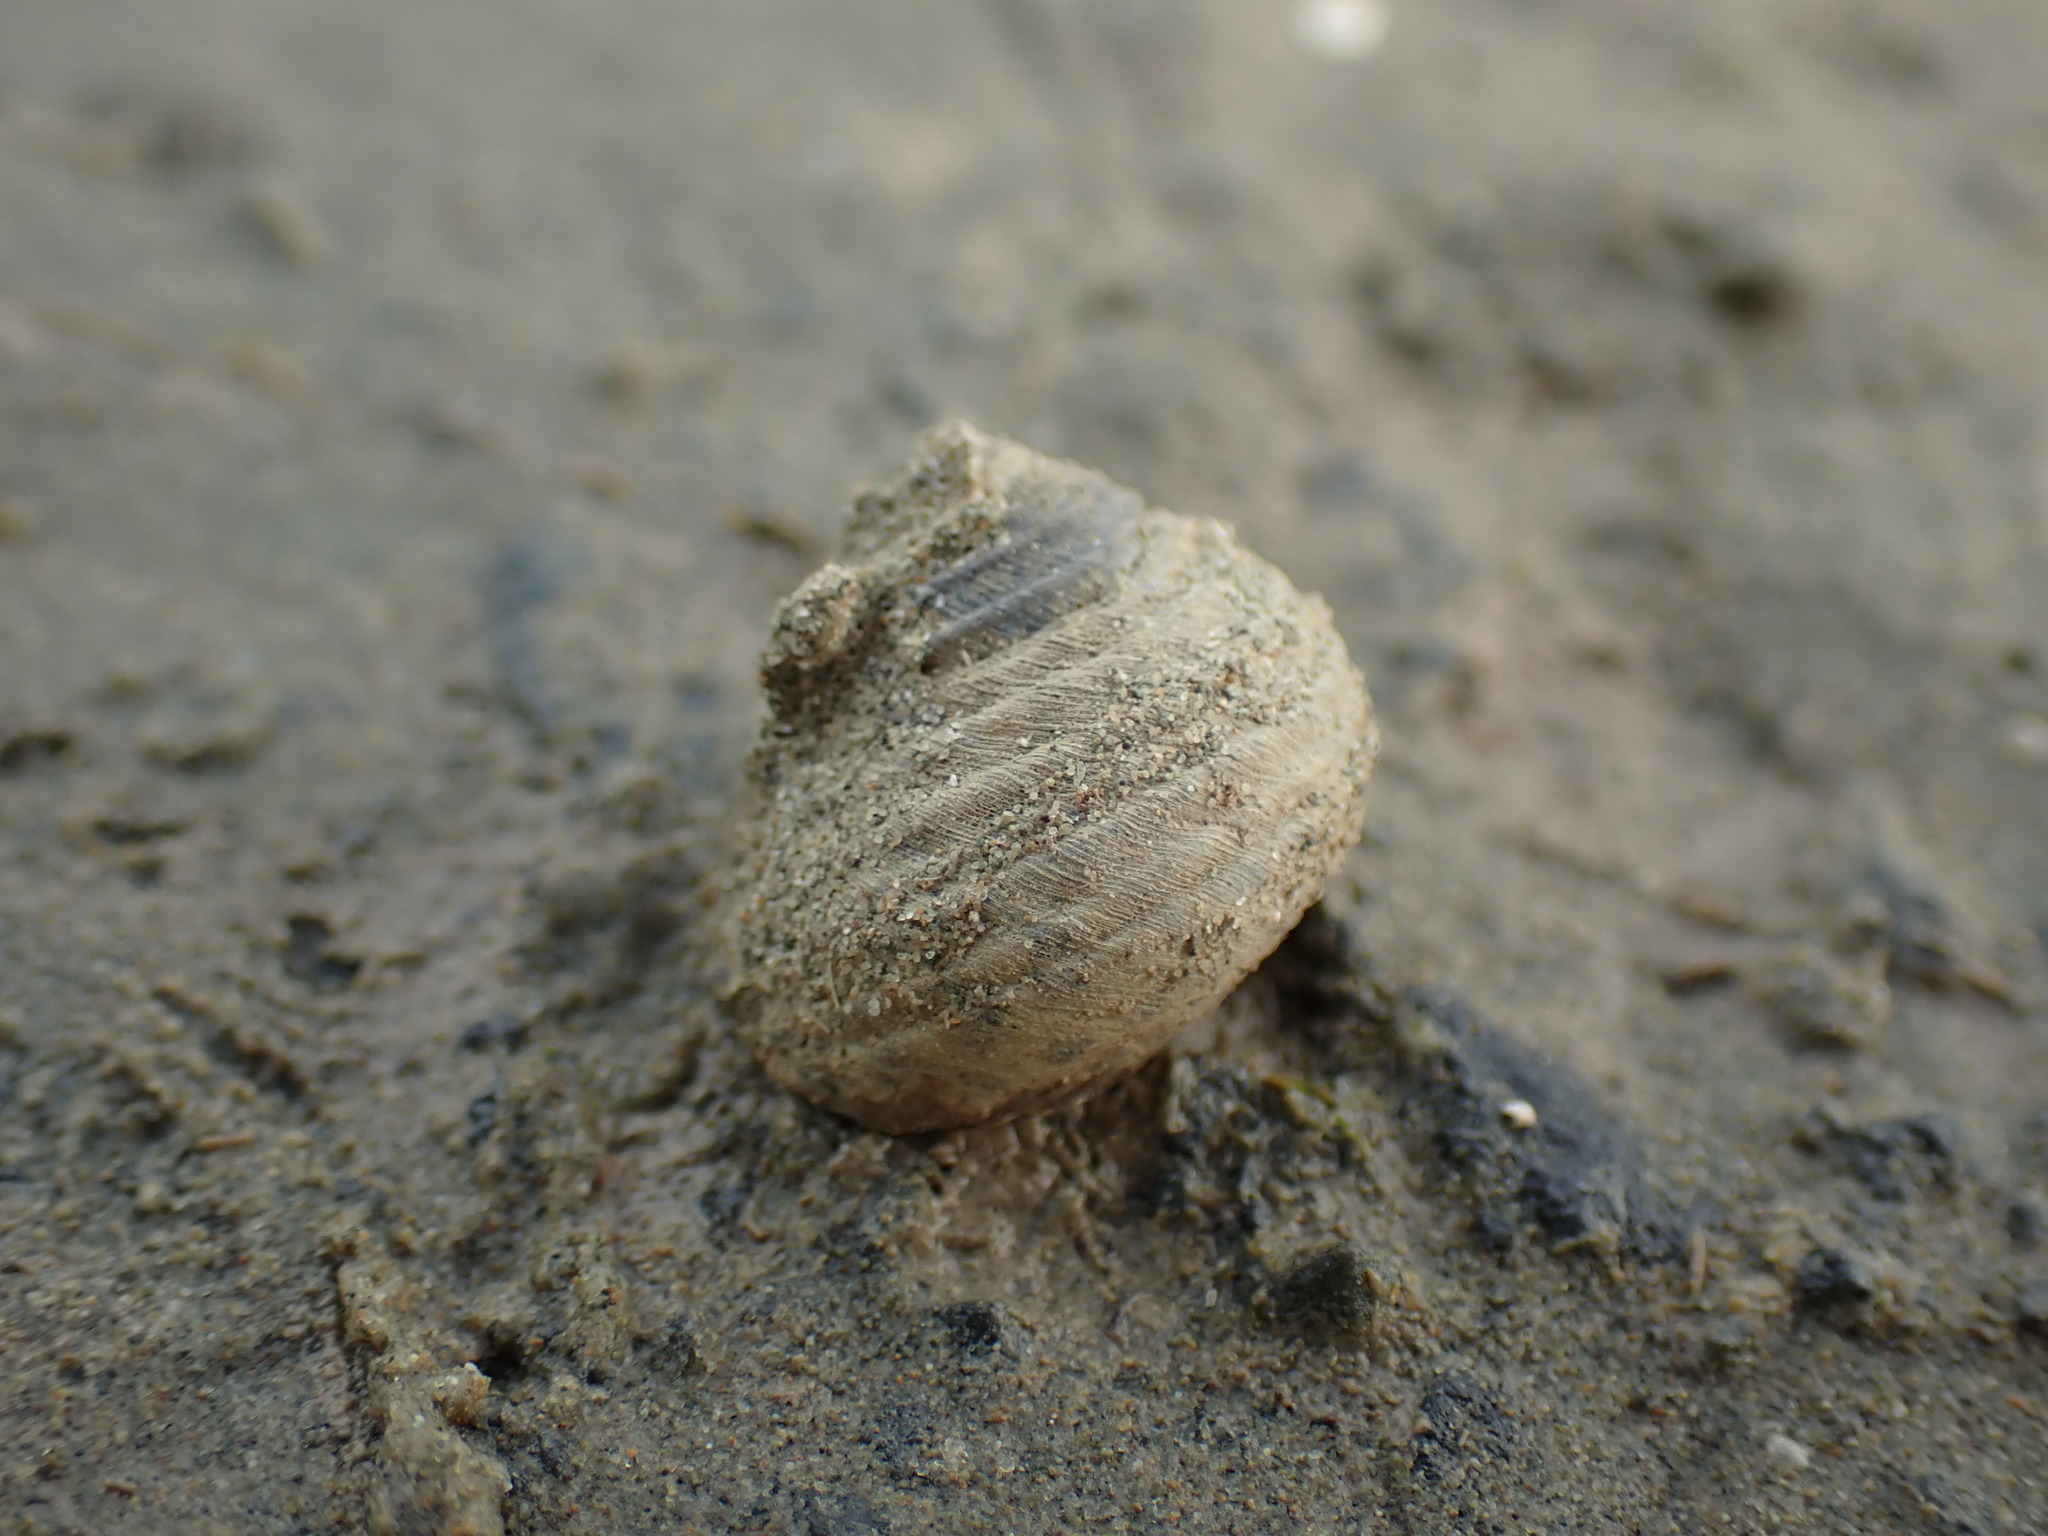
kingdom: Animalia
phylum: Mollusca
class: Gastropoda
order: Trochida
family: Trochidae
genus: Diloma
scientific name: Diloma subrostratum
